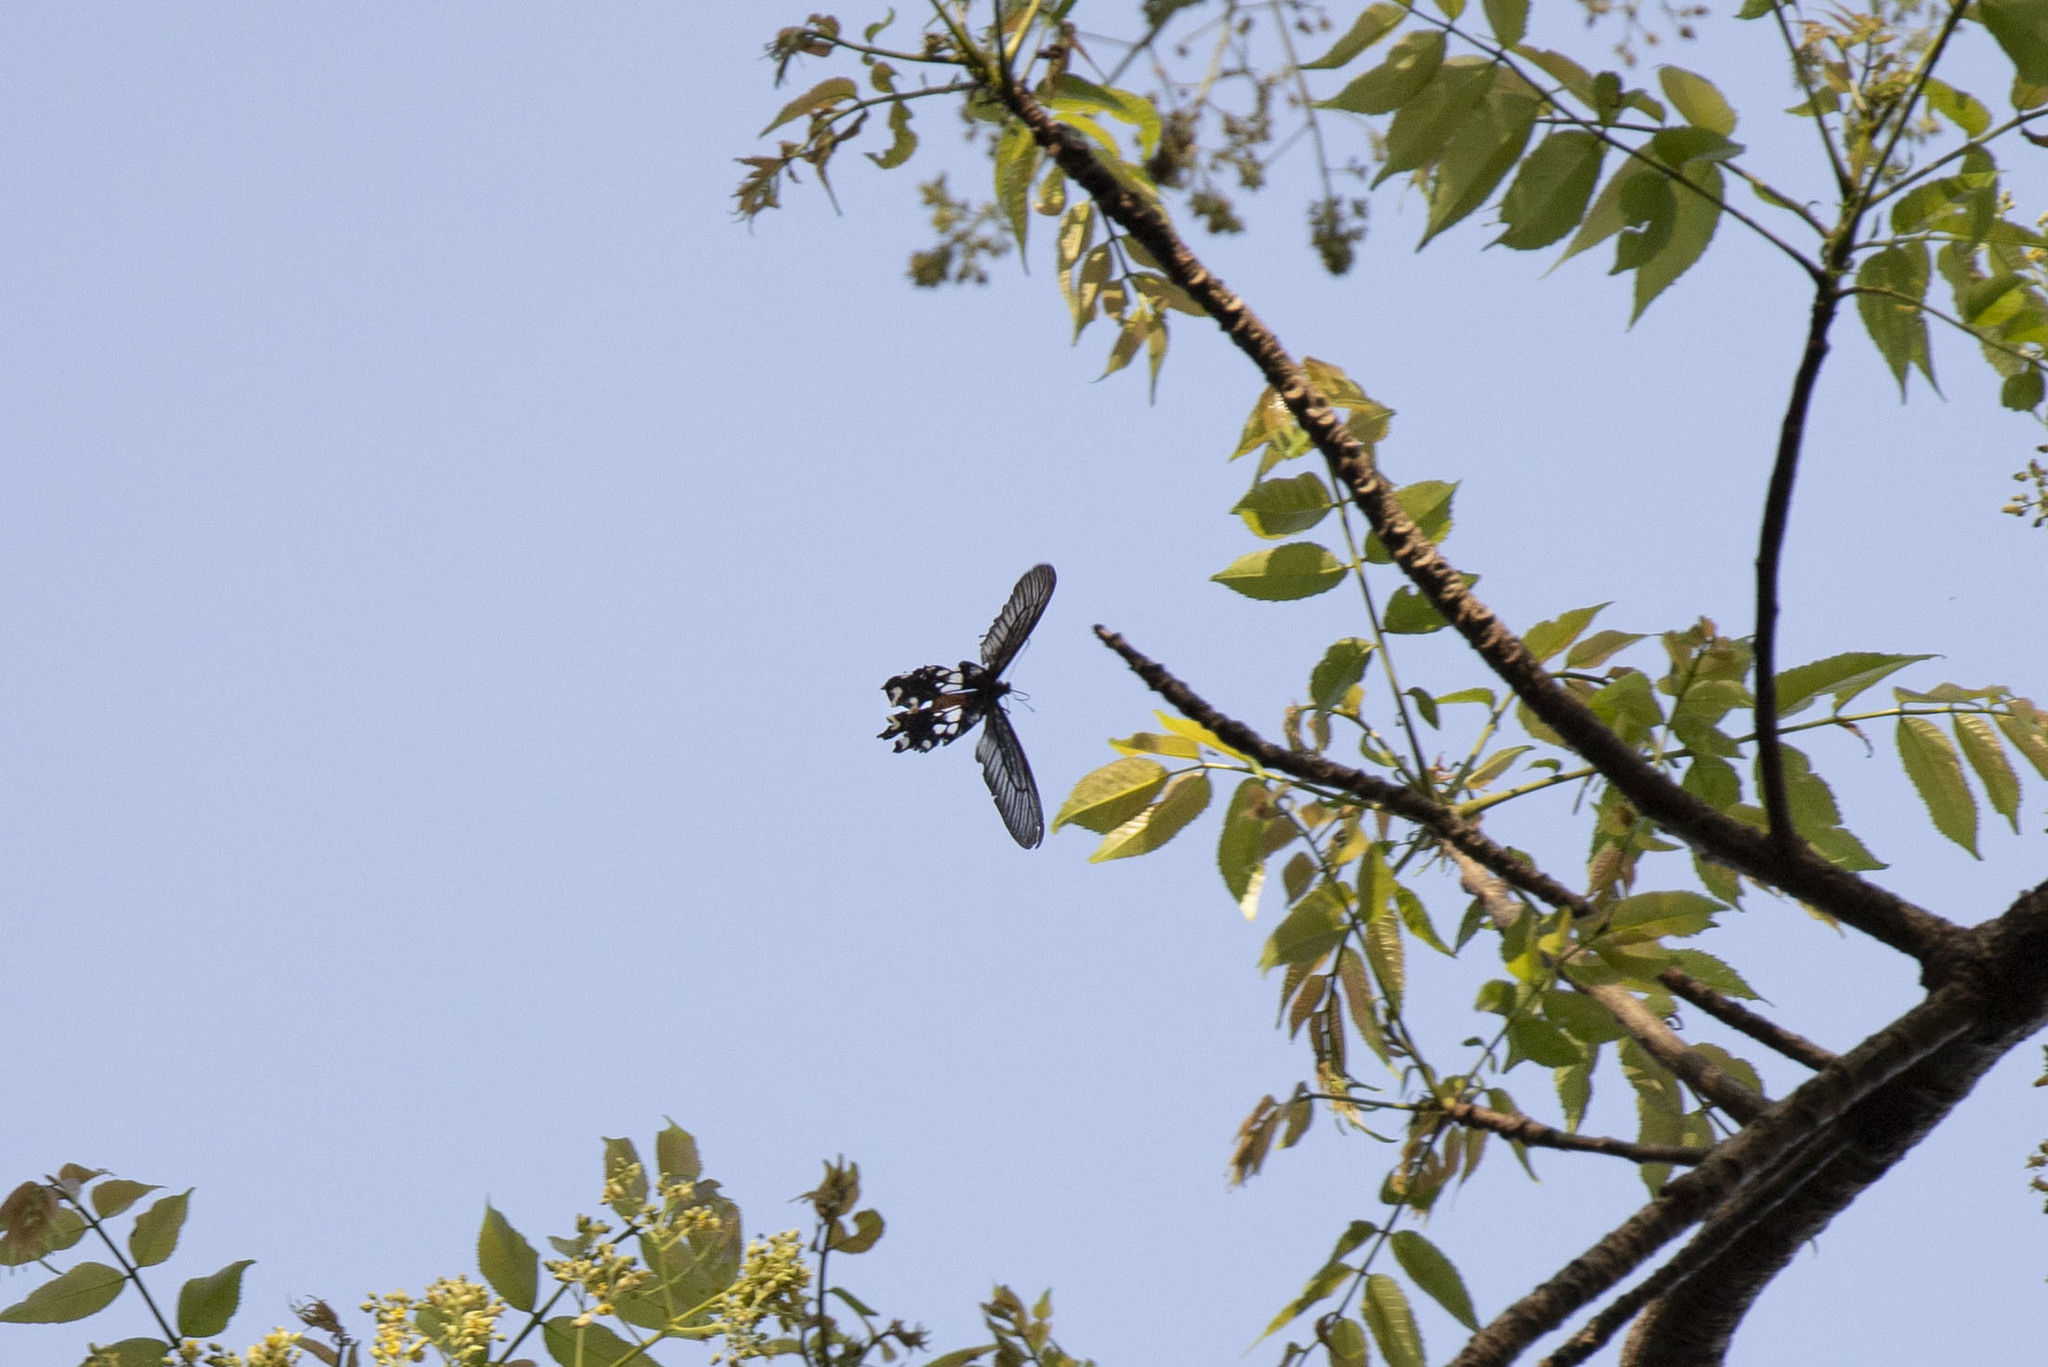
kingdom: Animalia
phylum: Arthropoda
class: Insecta
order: Lepidoptera
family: Papilionidae
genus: Losaria
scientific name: Losaria rhodifer
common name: Andaman clubtail
